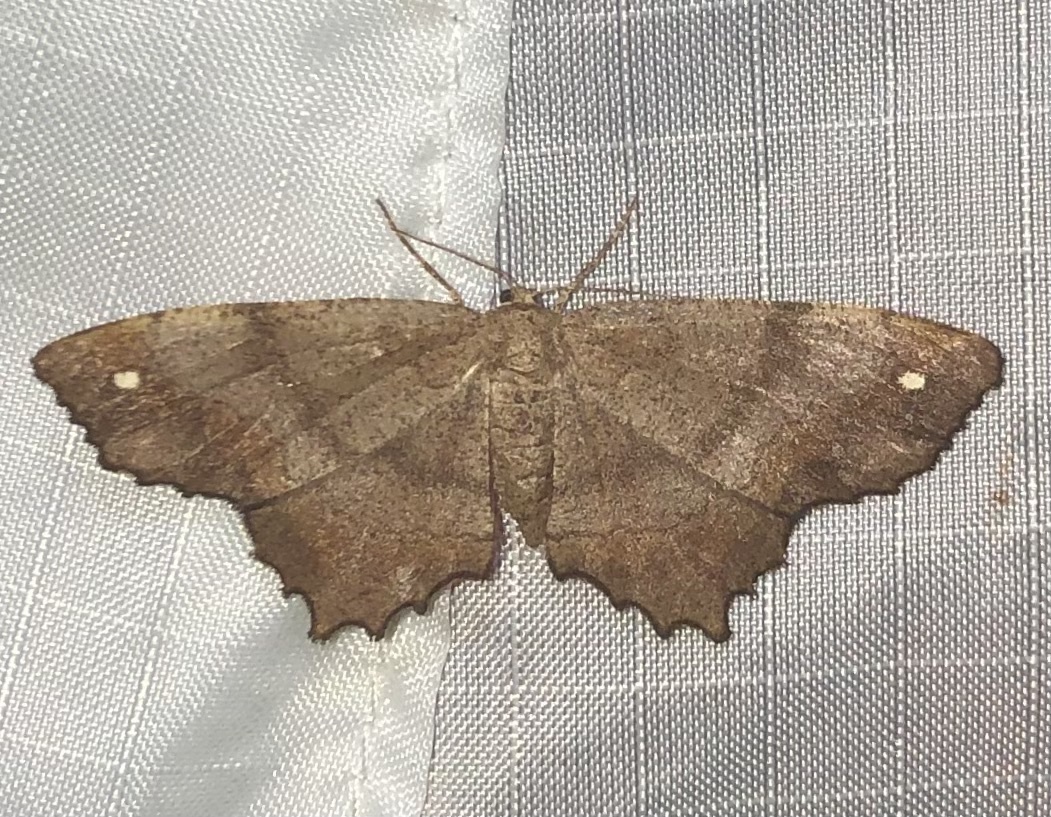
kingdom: Animalia
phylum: Arthropoda
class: Insecta
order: Lepidoptera
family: Geometridae
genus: Hypagyrtis
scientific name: Hypagyrtis esther
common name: Esther moth
